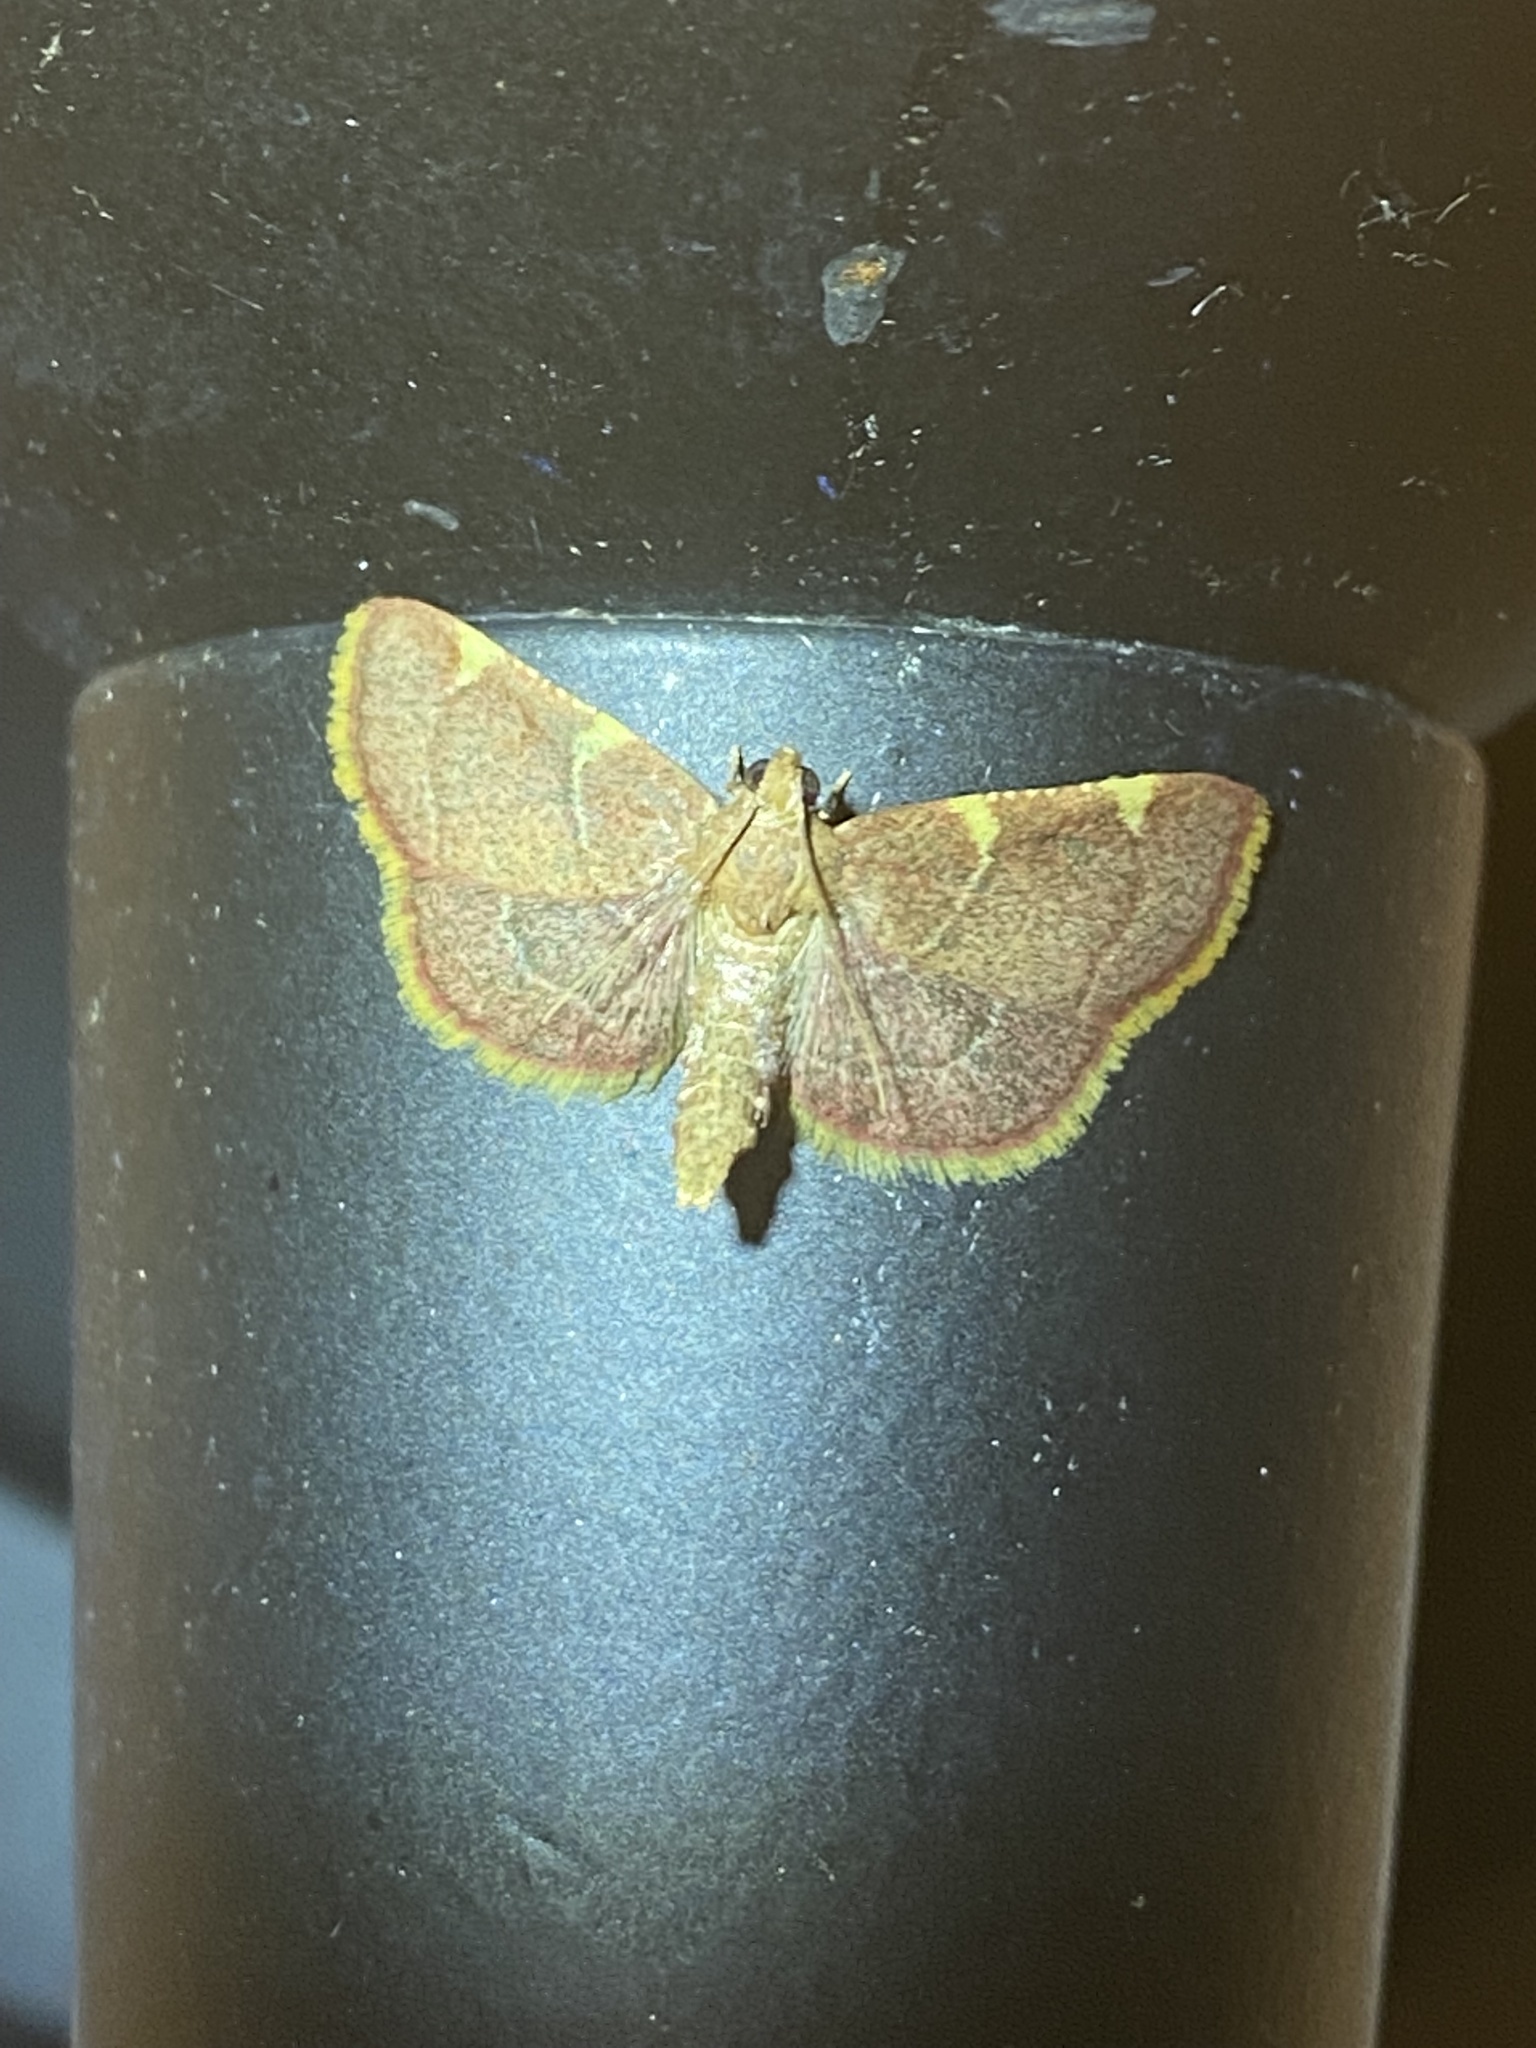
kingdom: Animalia
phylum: Arthropoda
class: Insecta
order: Lepidoptera
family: Pyralidae
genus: Hypsopygia
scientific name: Hypsopygia olinalis
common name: Yellow-fringed dolichomia moth
